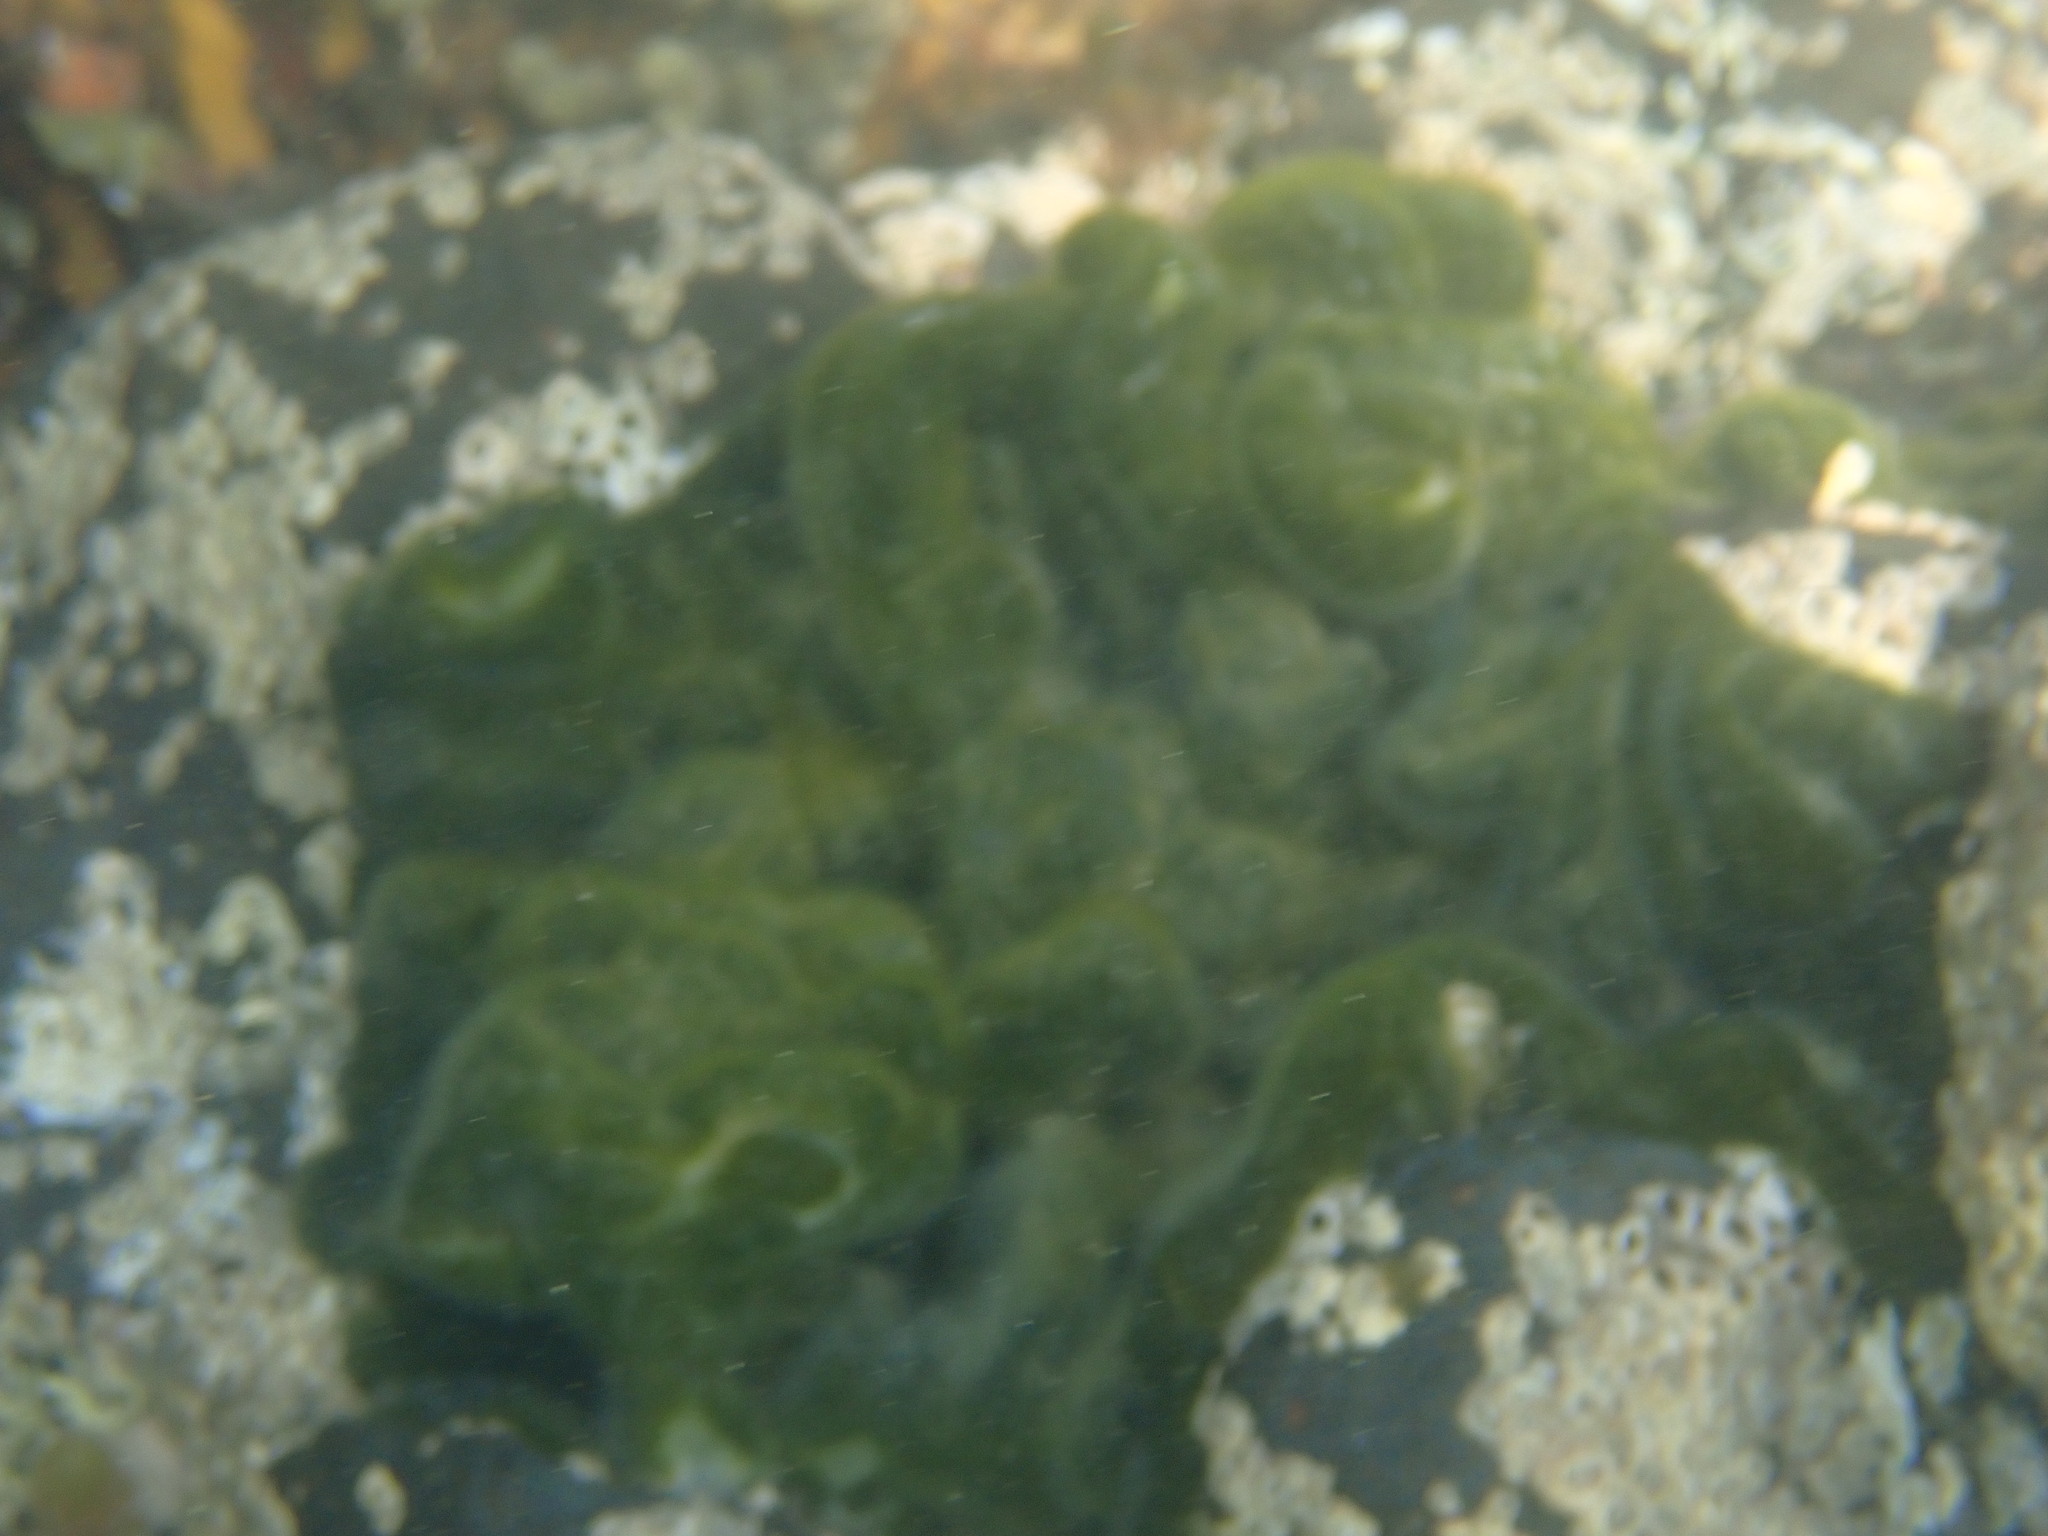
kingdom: Plantae
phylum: Chlorophyta
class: Ulvophyceae
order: Bryopsidales
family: Codiaceae
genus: Codium
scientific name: Codium convolutum
